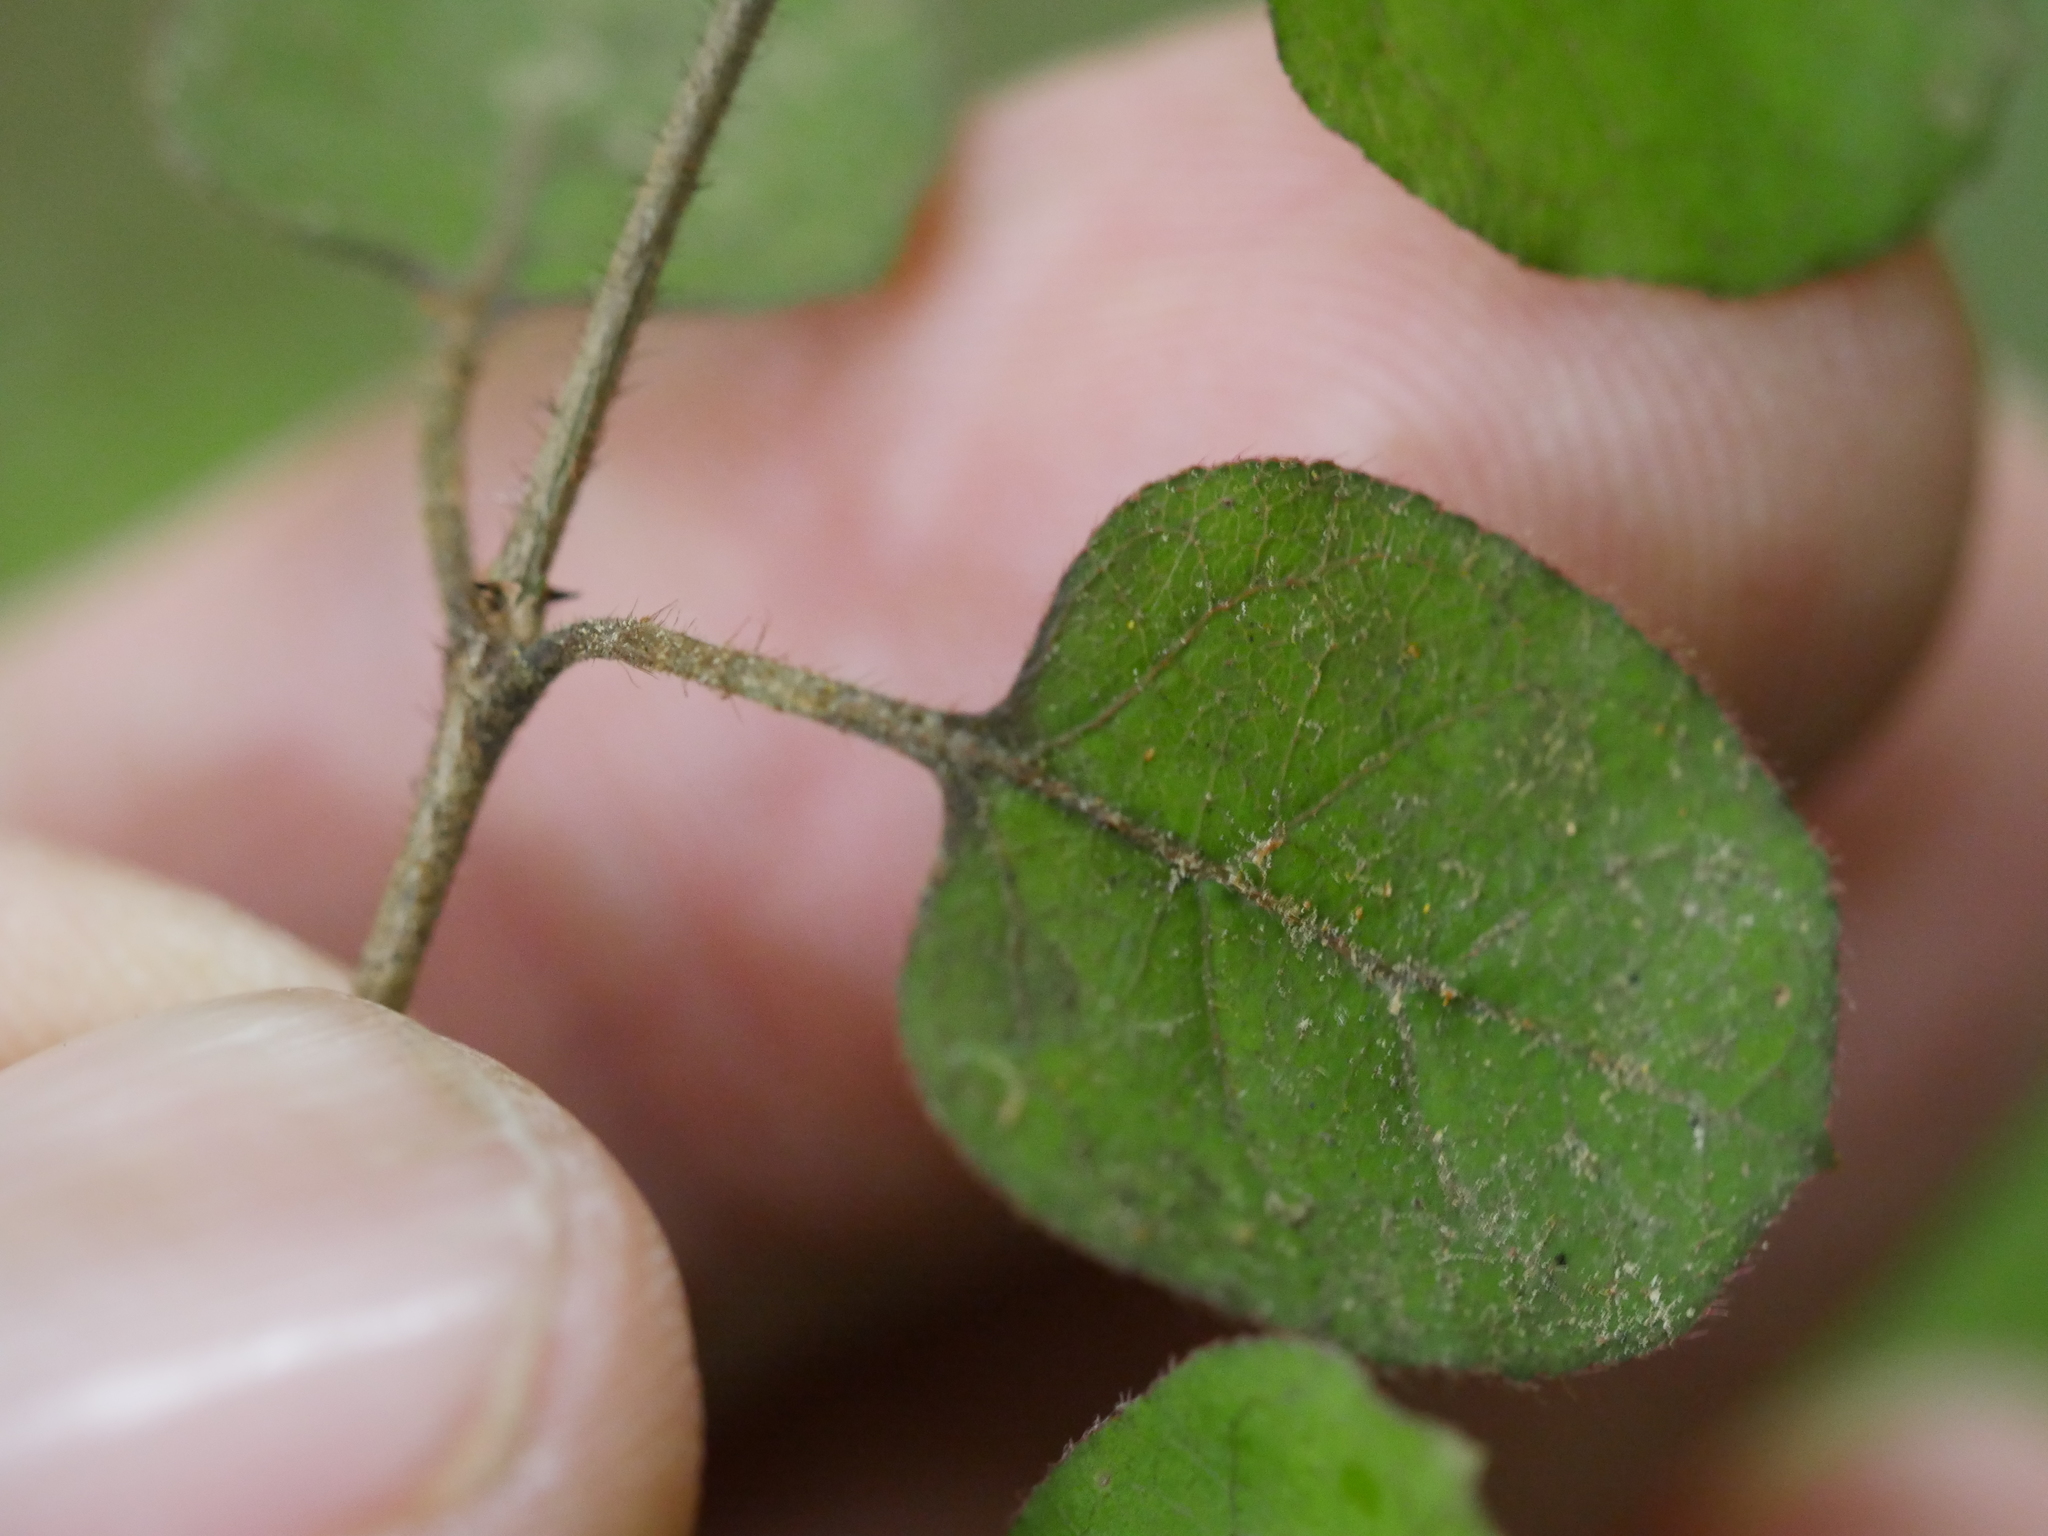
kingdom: Plantae
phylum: Tracheophyta
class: Magnoliopsida
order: Gentianales
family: Rubiaceae
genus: Coprosma
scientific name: Coprosma rotundifolia
